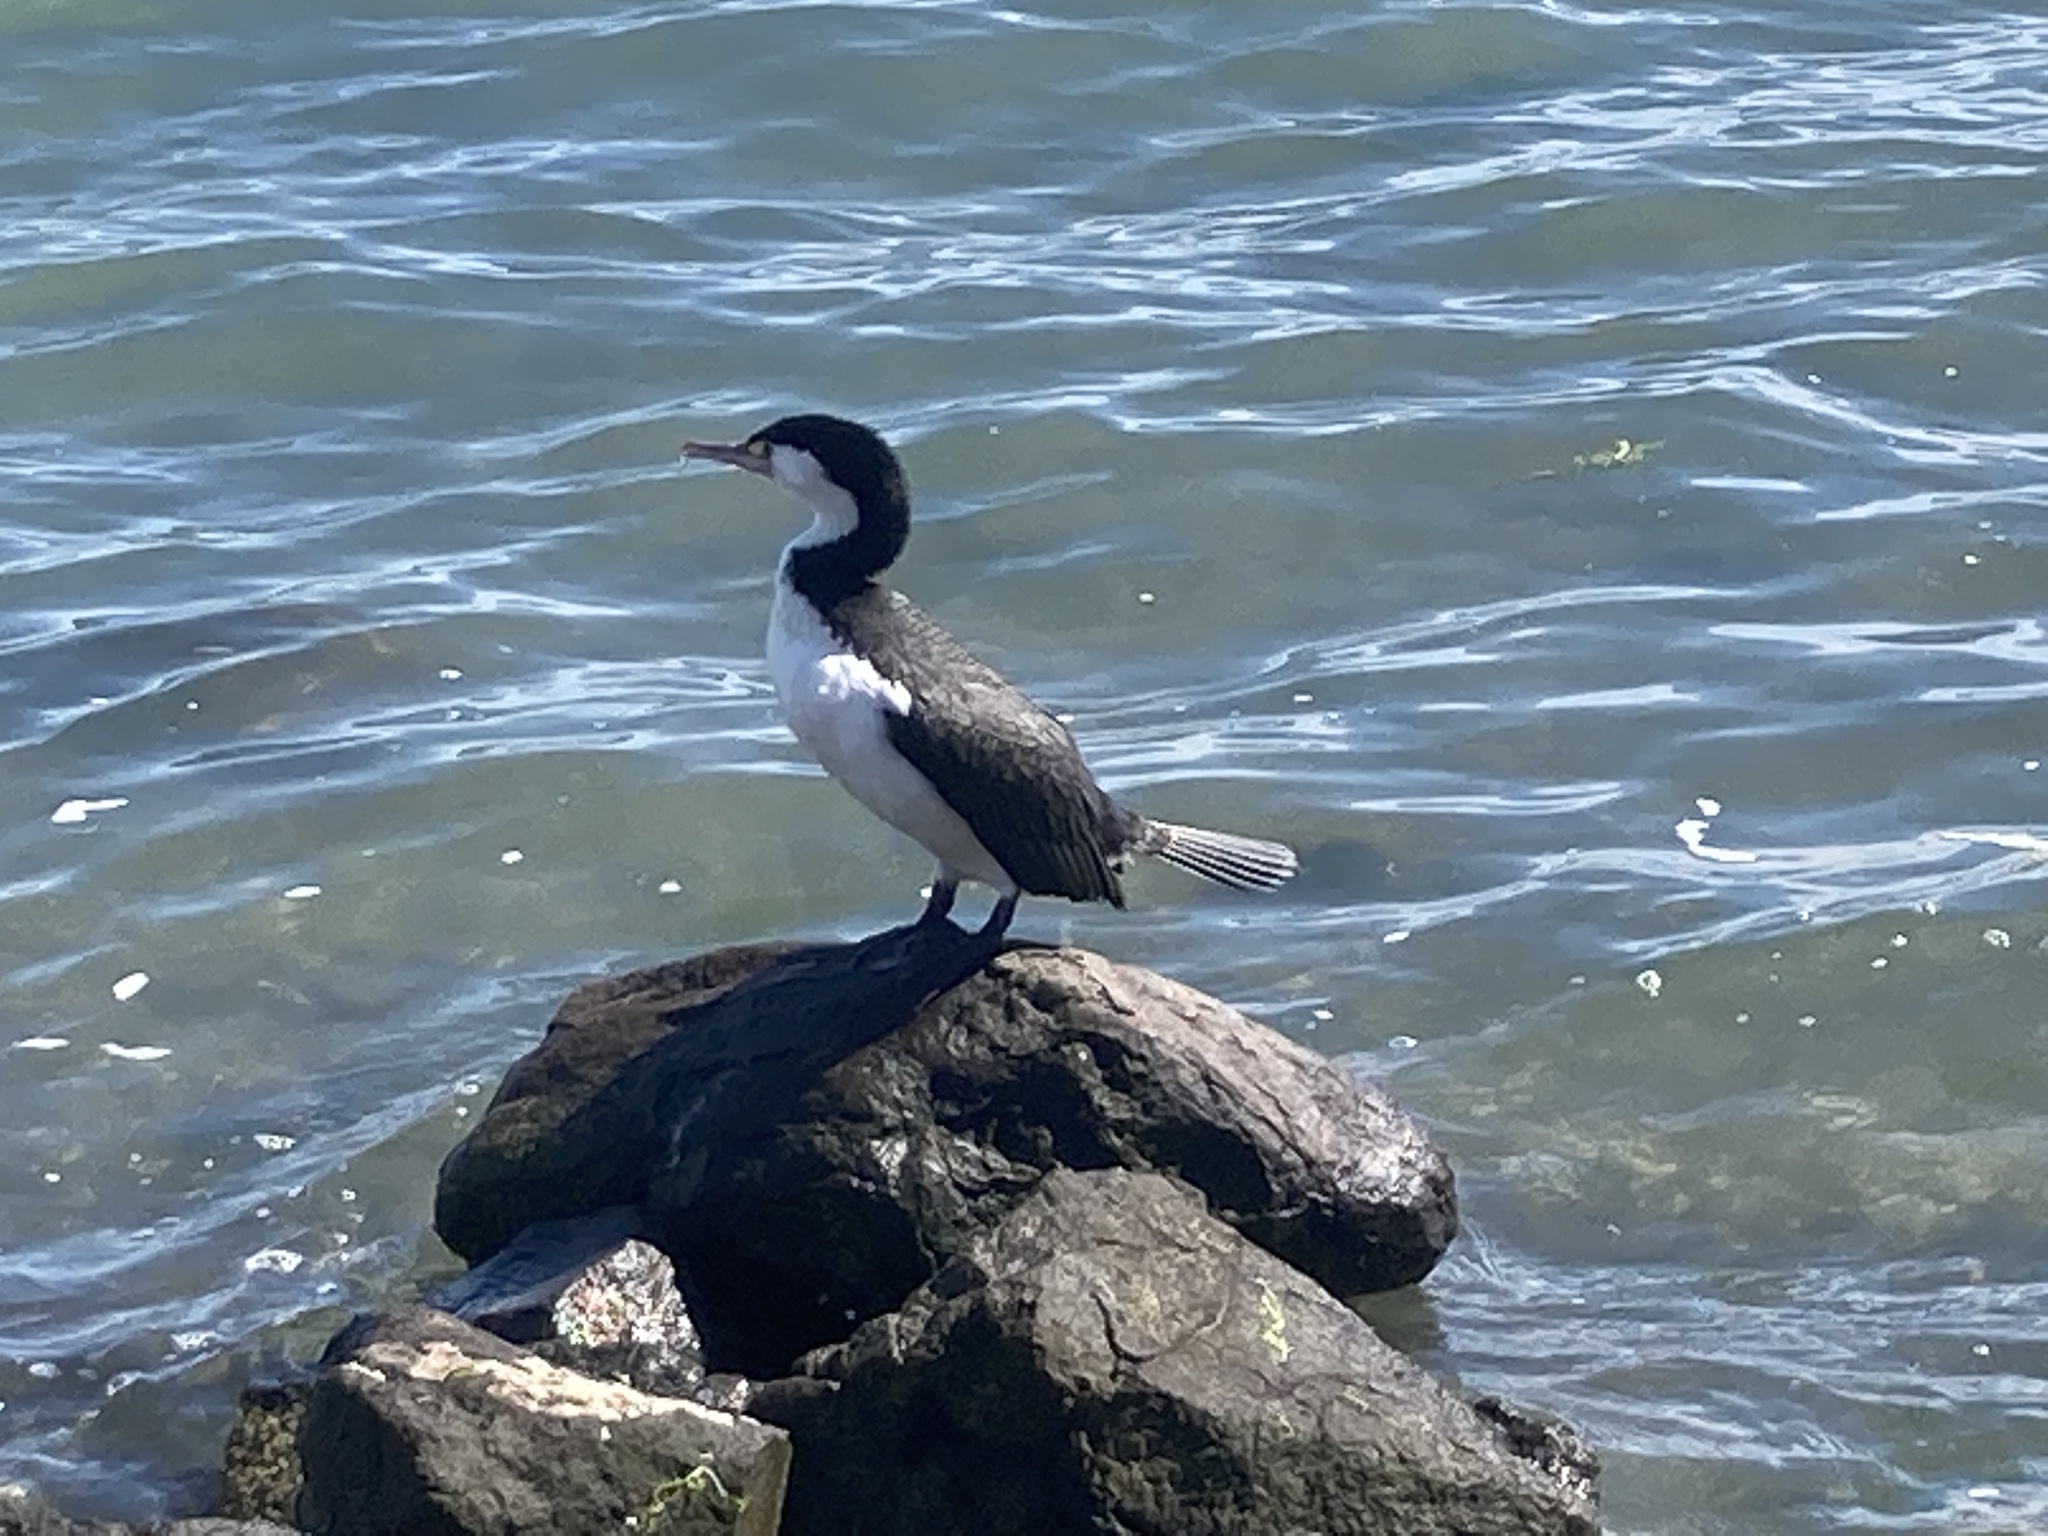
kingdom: Animalia
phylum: Chordata
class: Aves
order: Suliformes
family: Phalacrocoracidae
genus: Phalacrocorax
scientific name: Phalacrocorax varius
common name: Pied cormorant
